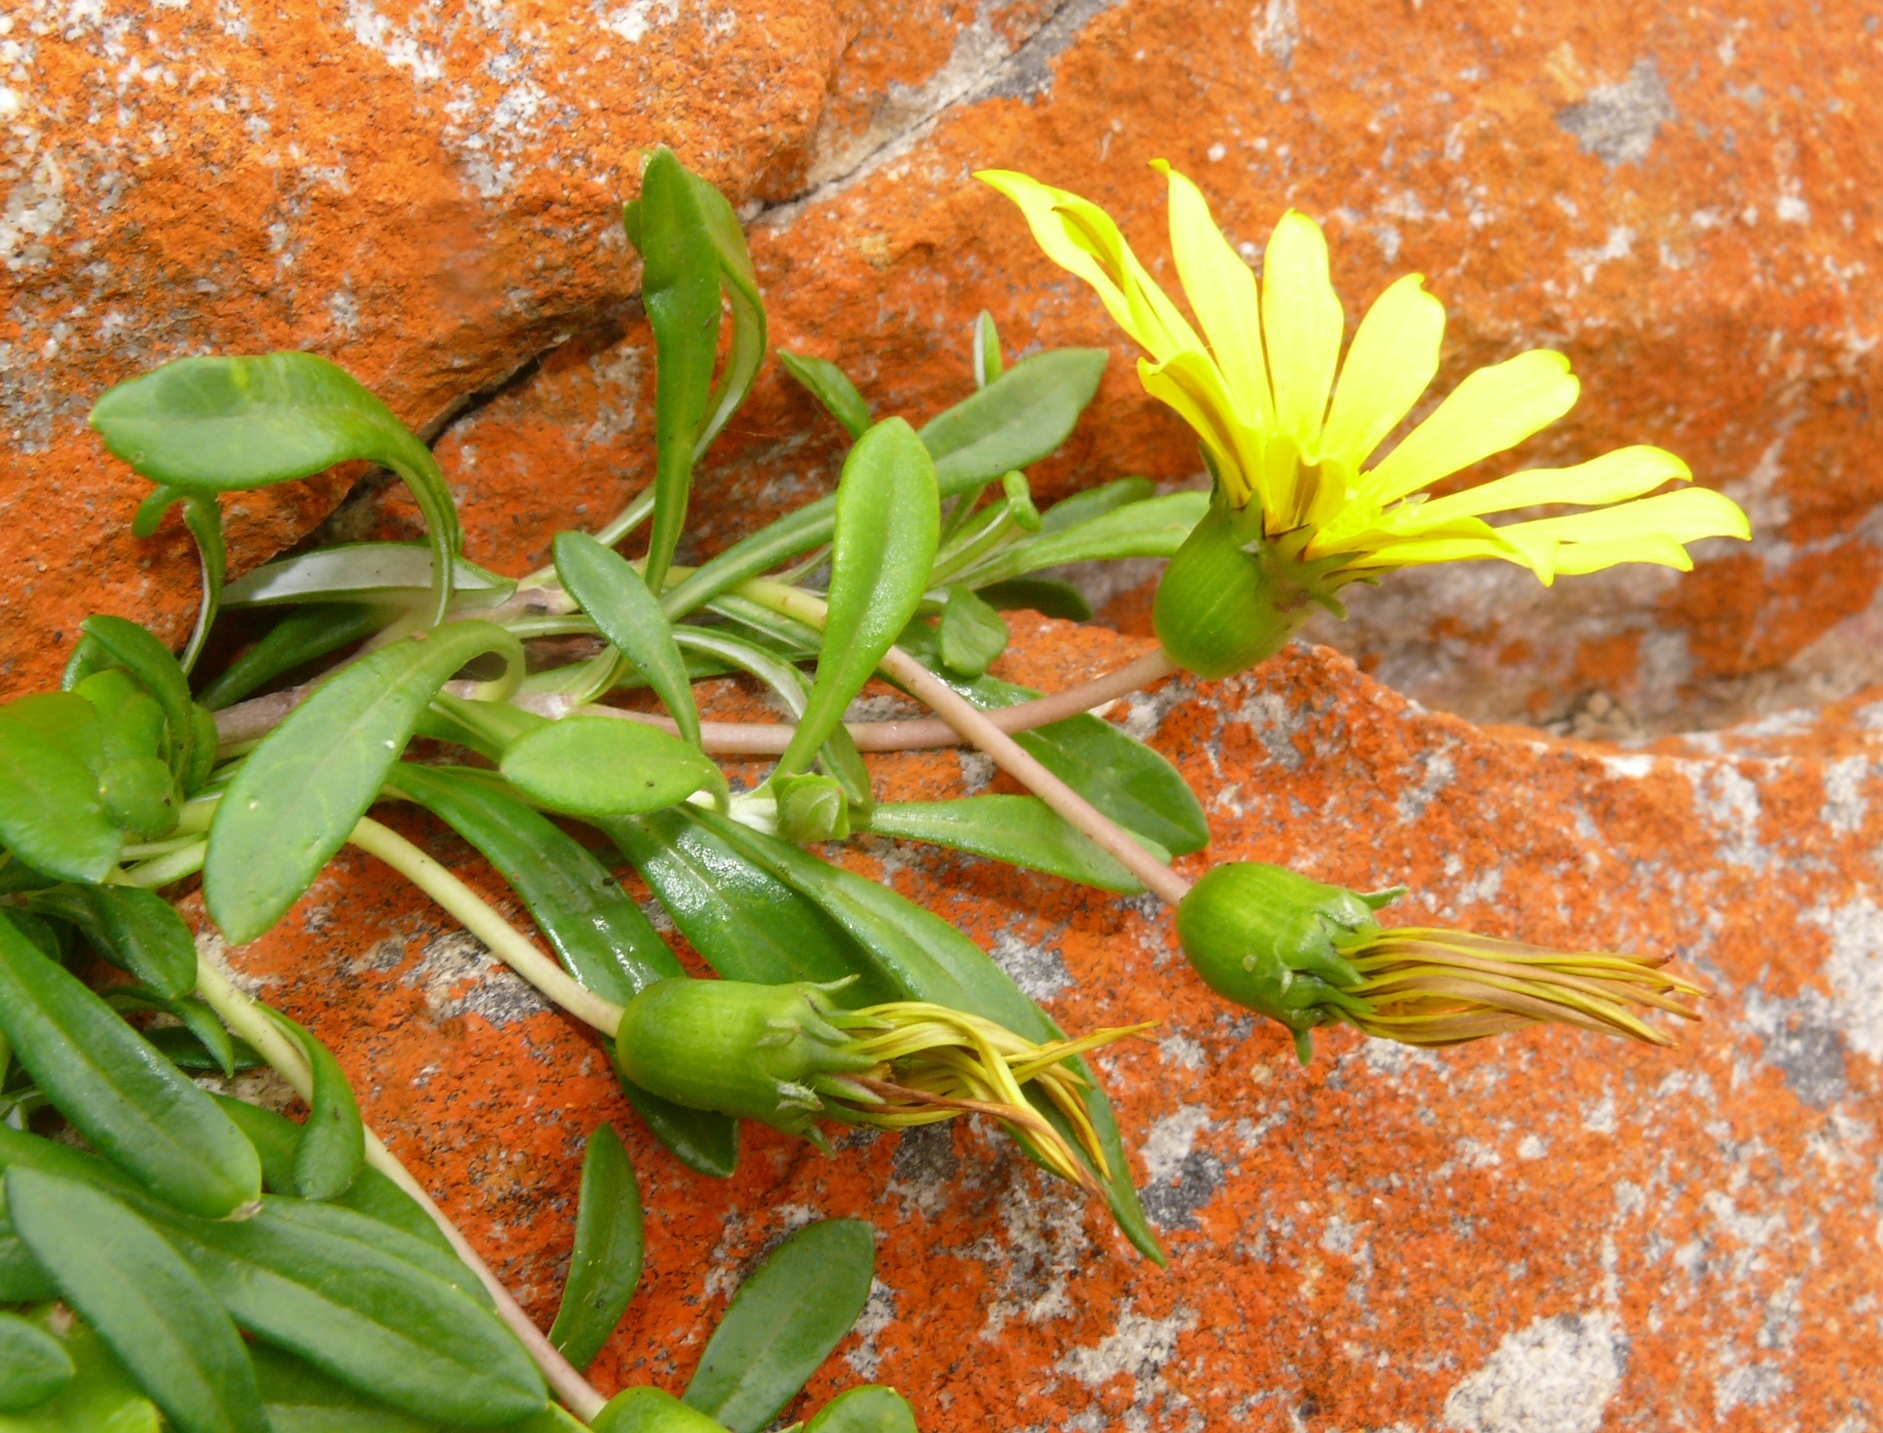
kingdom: Plantae
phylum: Tracheophyta
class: Magnoliopsida
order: Asterales
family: Asteraceae
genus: Gazania
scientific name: Gazania rigens
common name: Treasureflower
